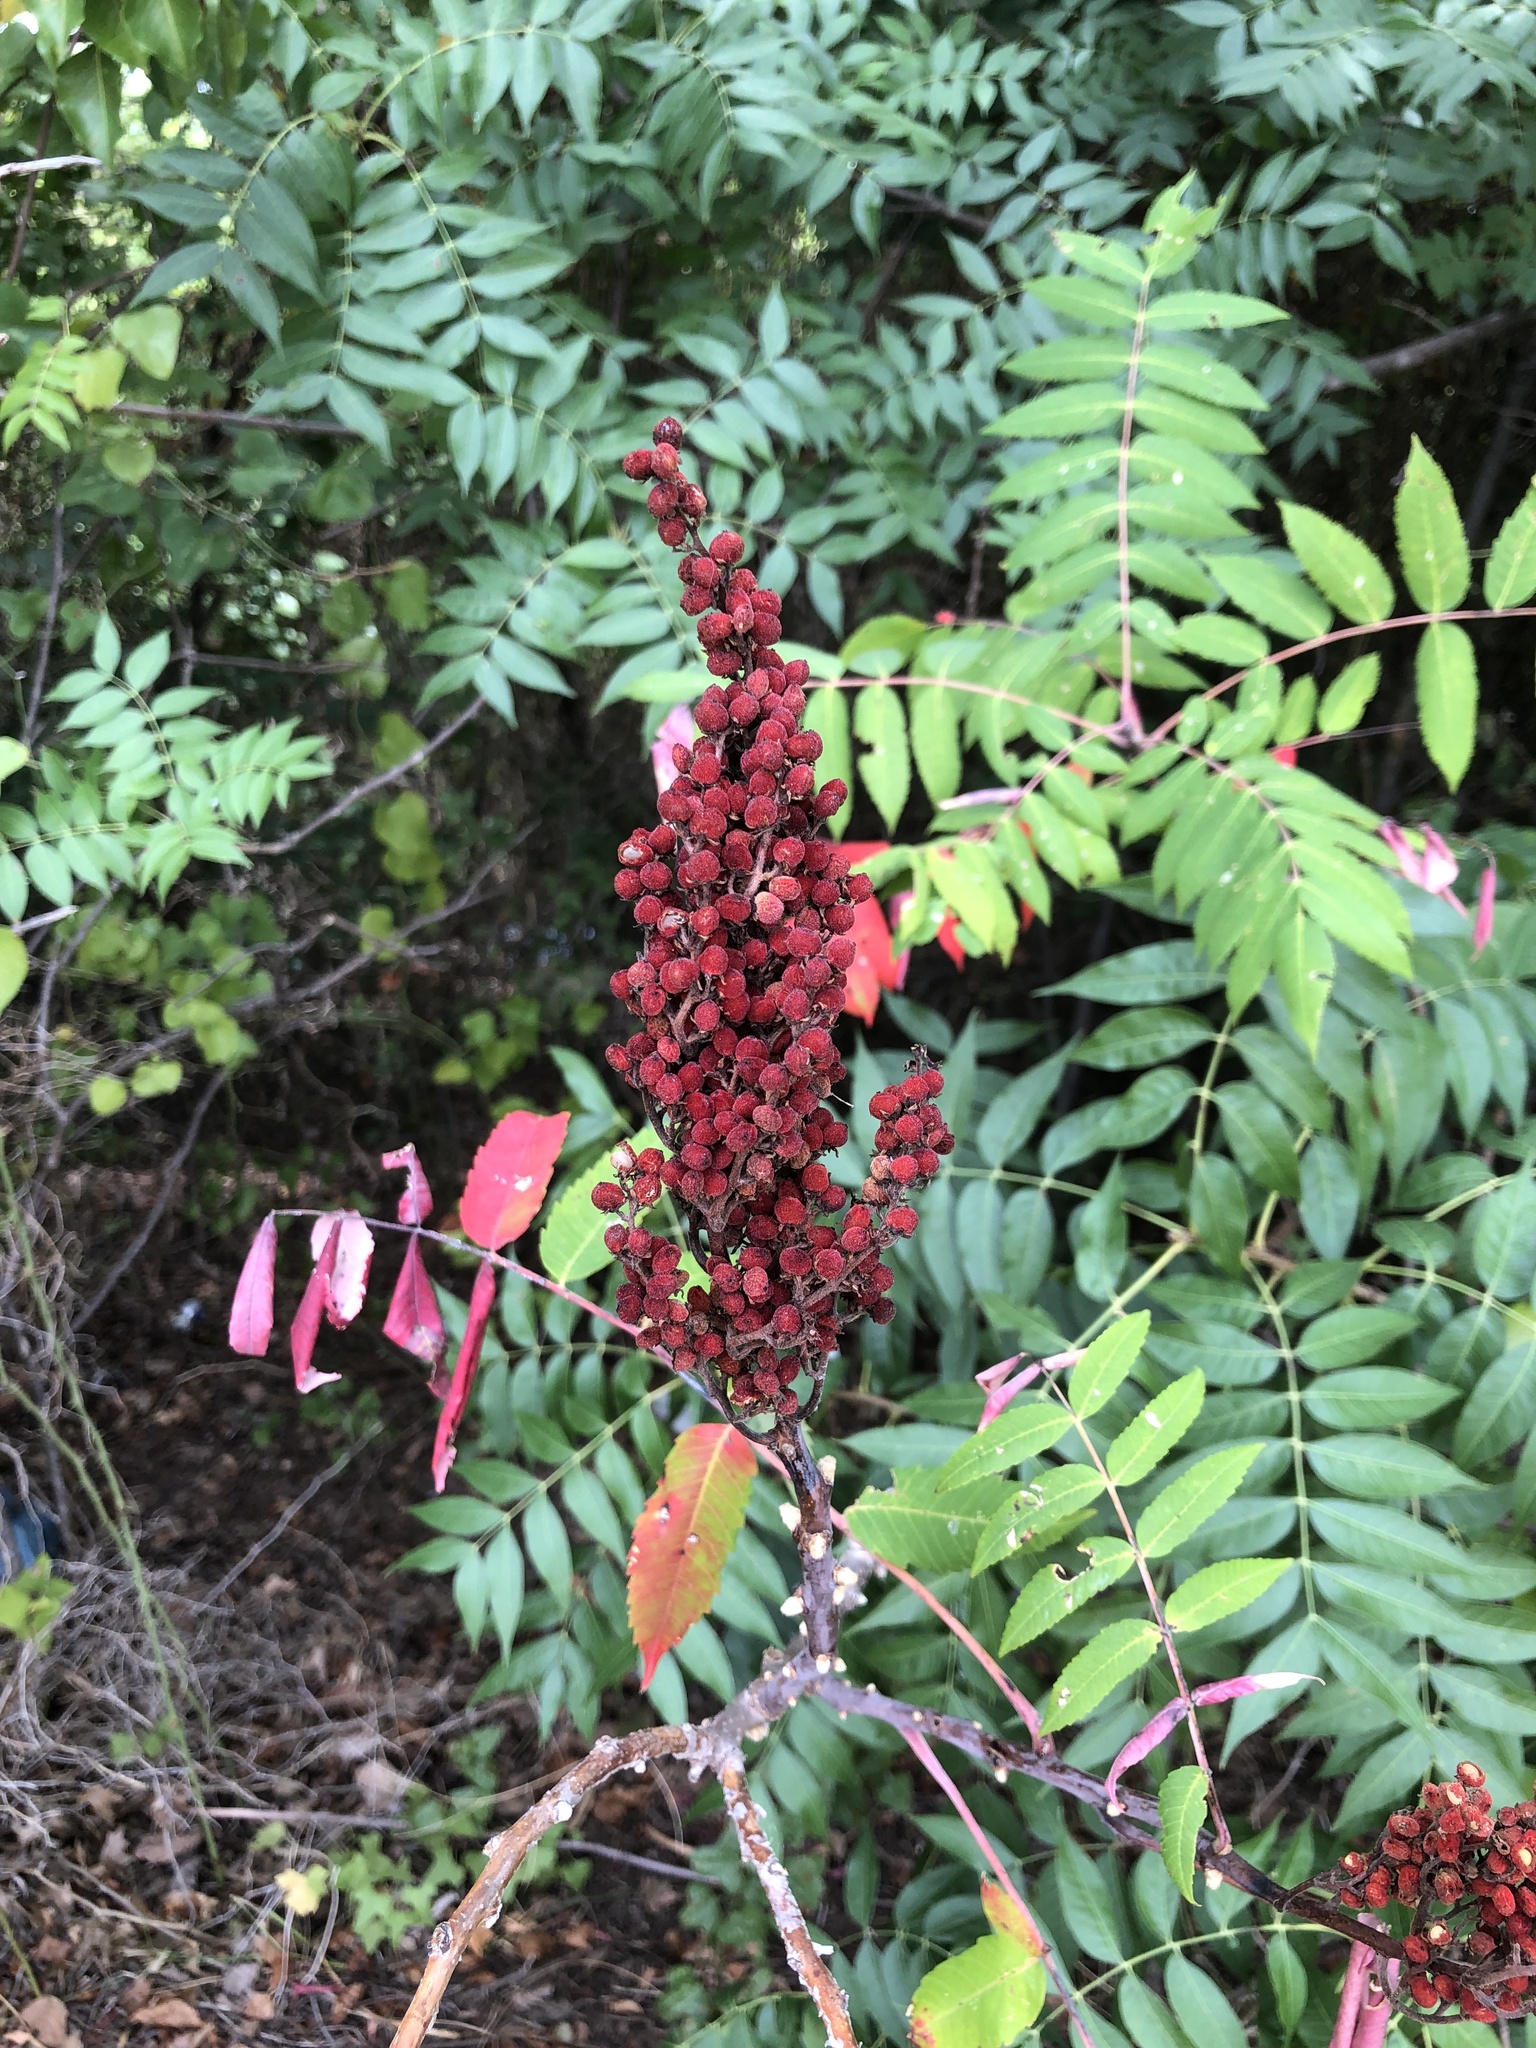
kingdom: Plantae
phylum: Tracheophyta
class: Magnoliopsida
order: Sapindales
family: Anacardiaceae
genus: Rhus
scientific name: Rhus glabra
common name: Scarlet sumac
